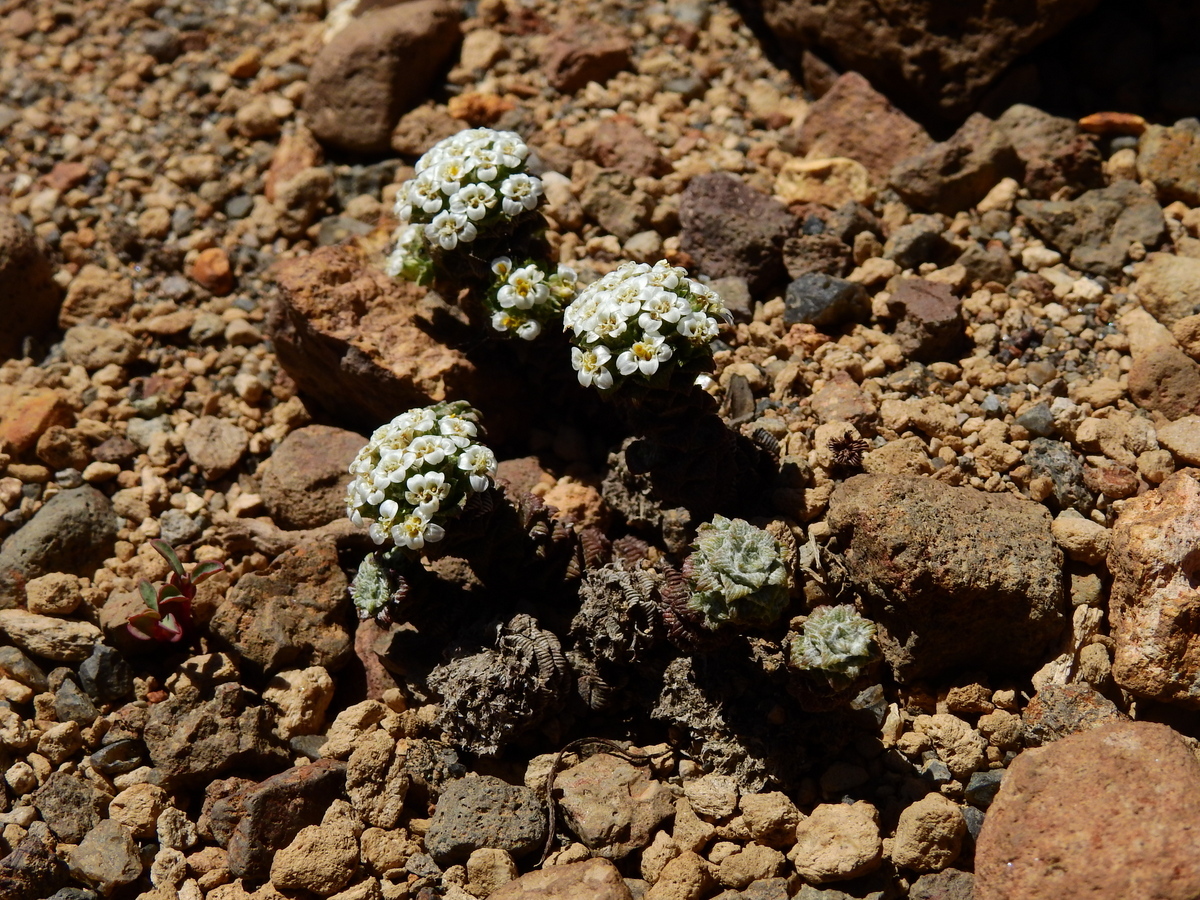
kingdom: Plantae
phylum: Tracheophyta
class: Magnoliopsida
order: Asterales
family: Asteraceae
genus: Nassauvia
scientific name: Nassauvia revoluta
